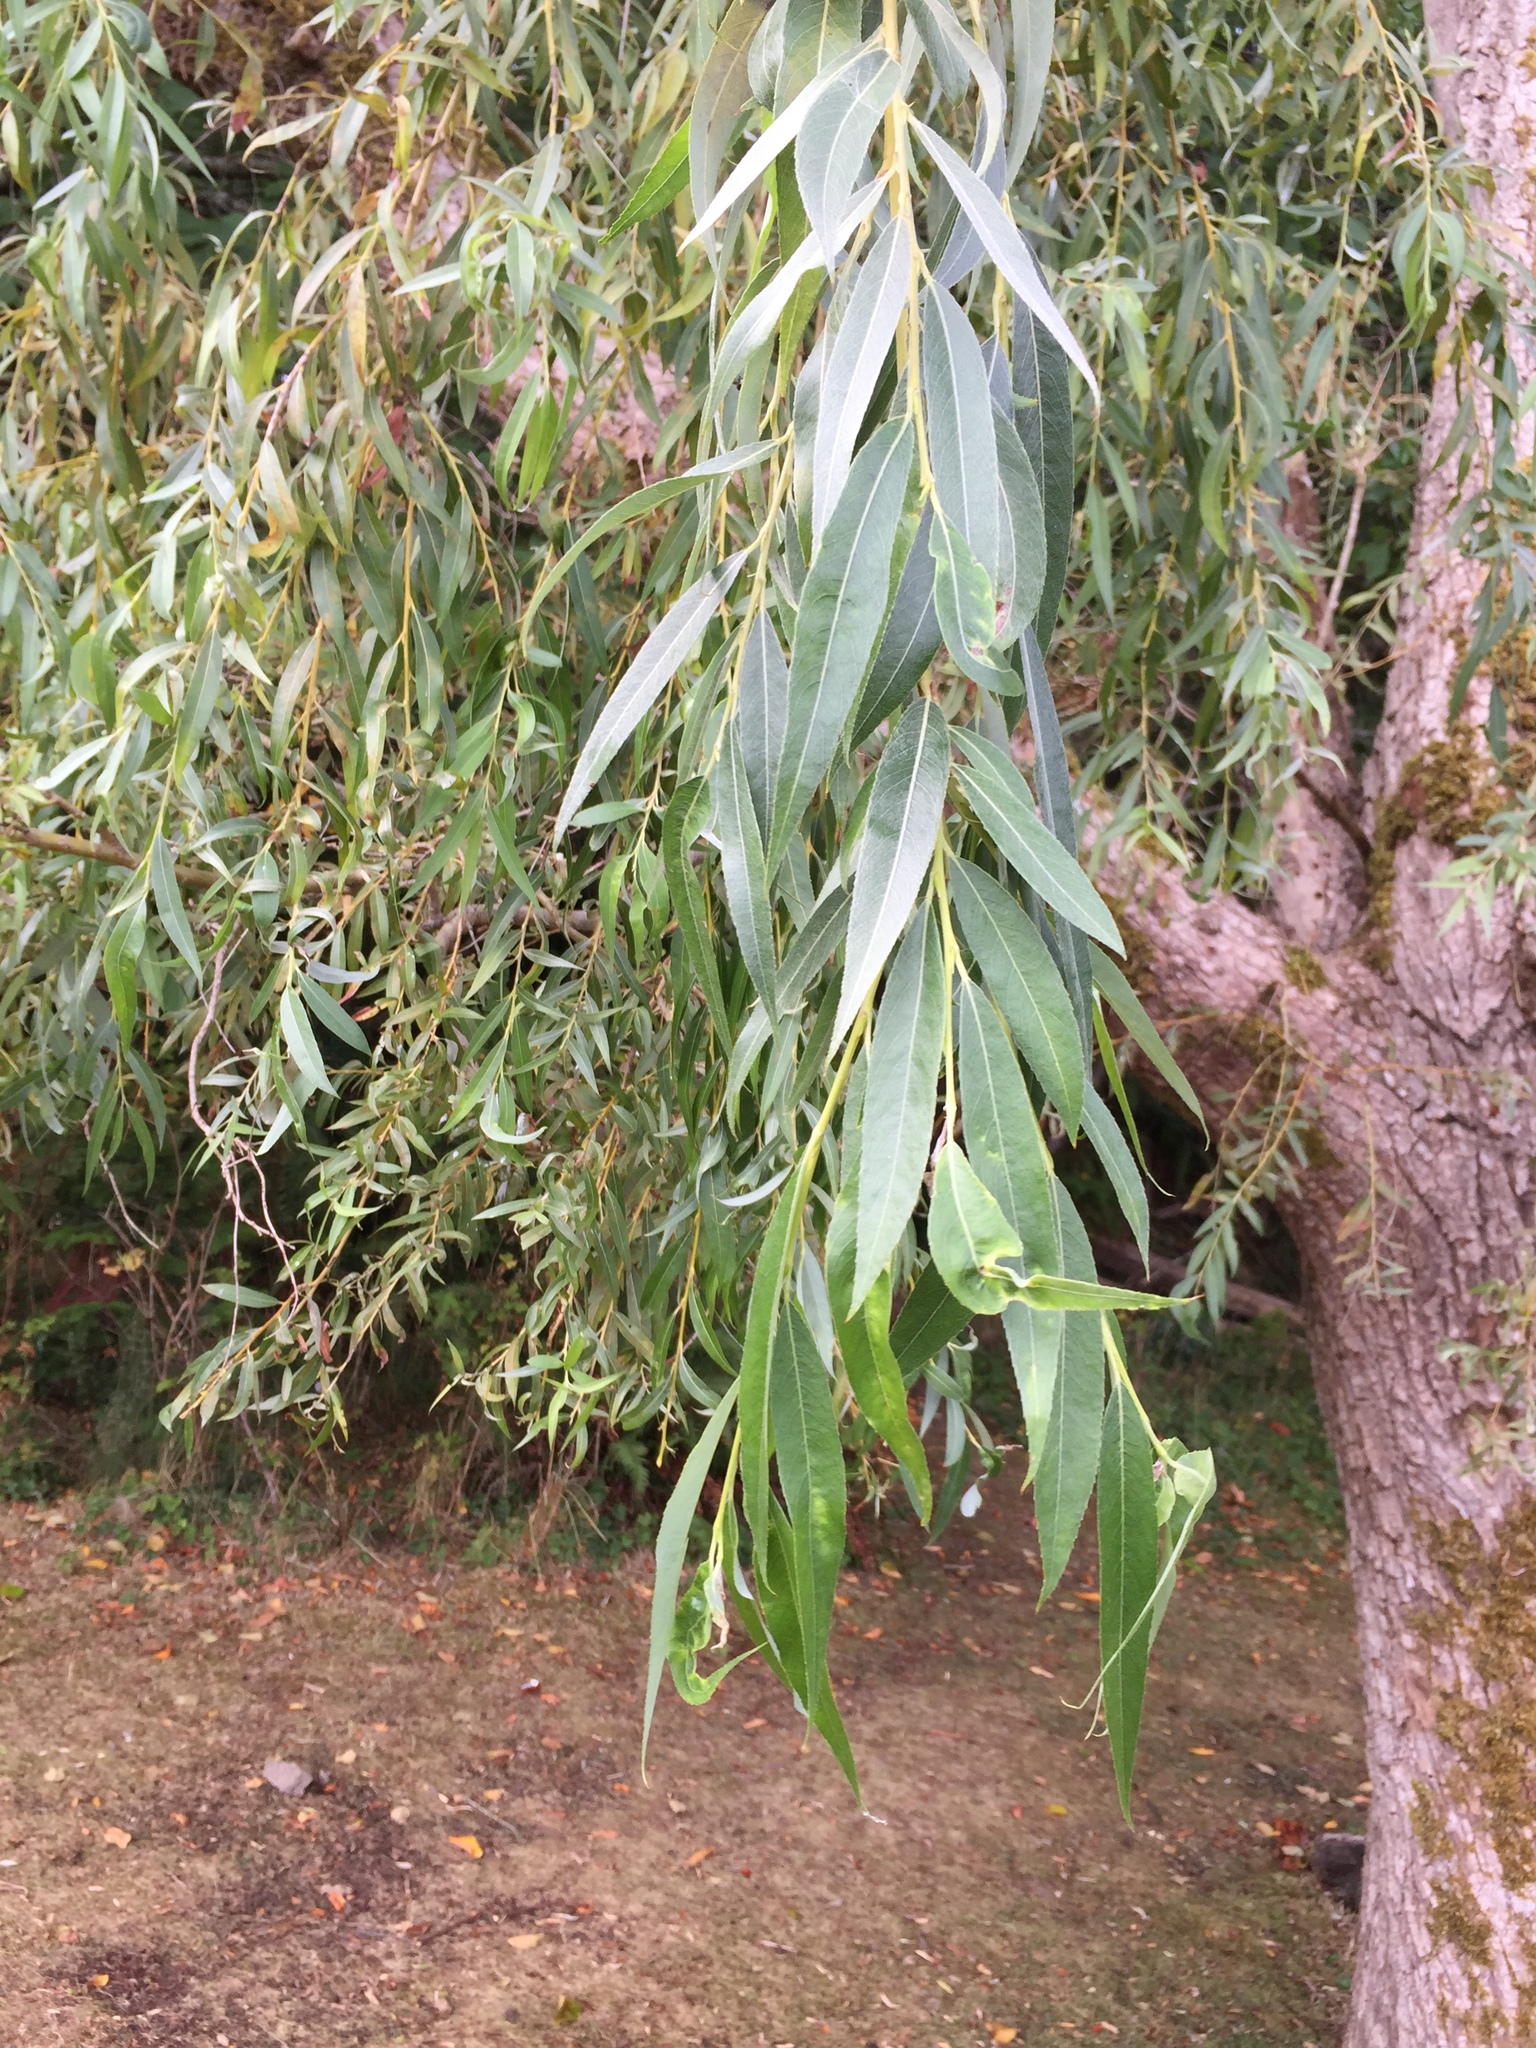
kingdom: Plantae
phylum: Tracheophyta
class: Magnoliopsida
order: Malpighiales
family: Salicaceae
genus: Salix
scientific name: Salix pendulina
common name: Wisconsin weeping willow
